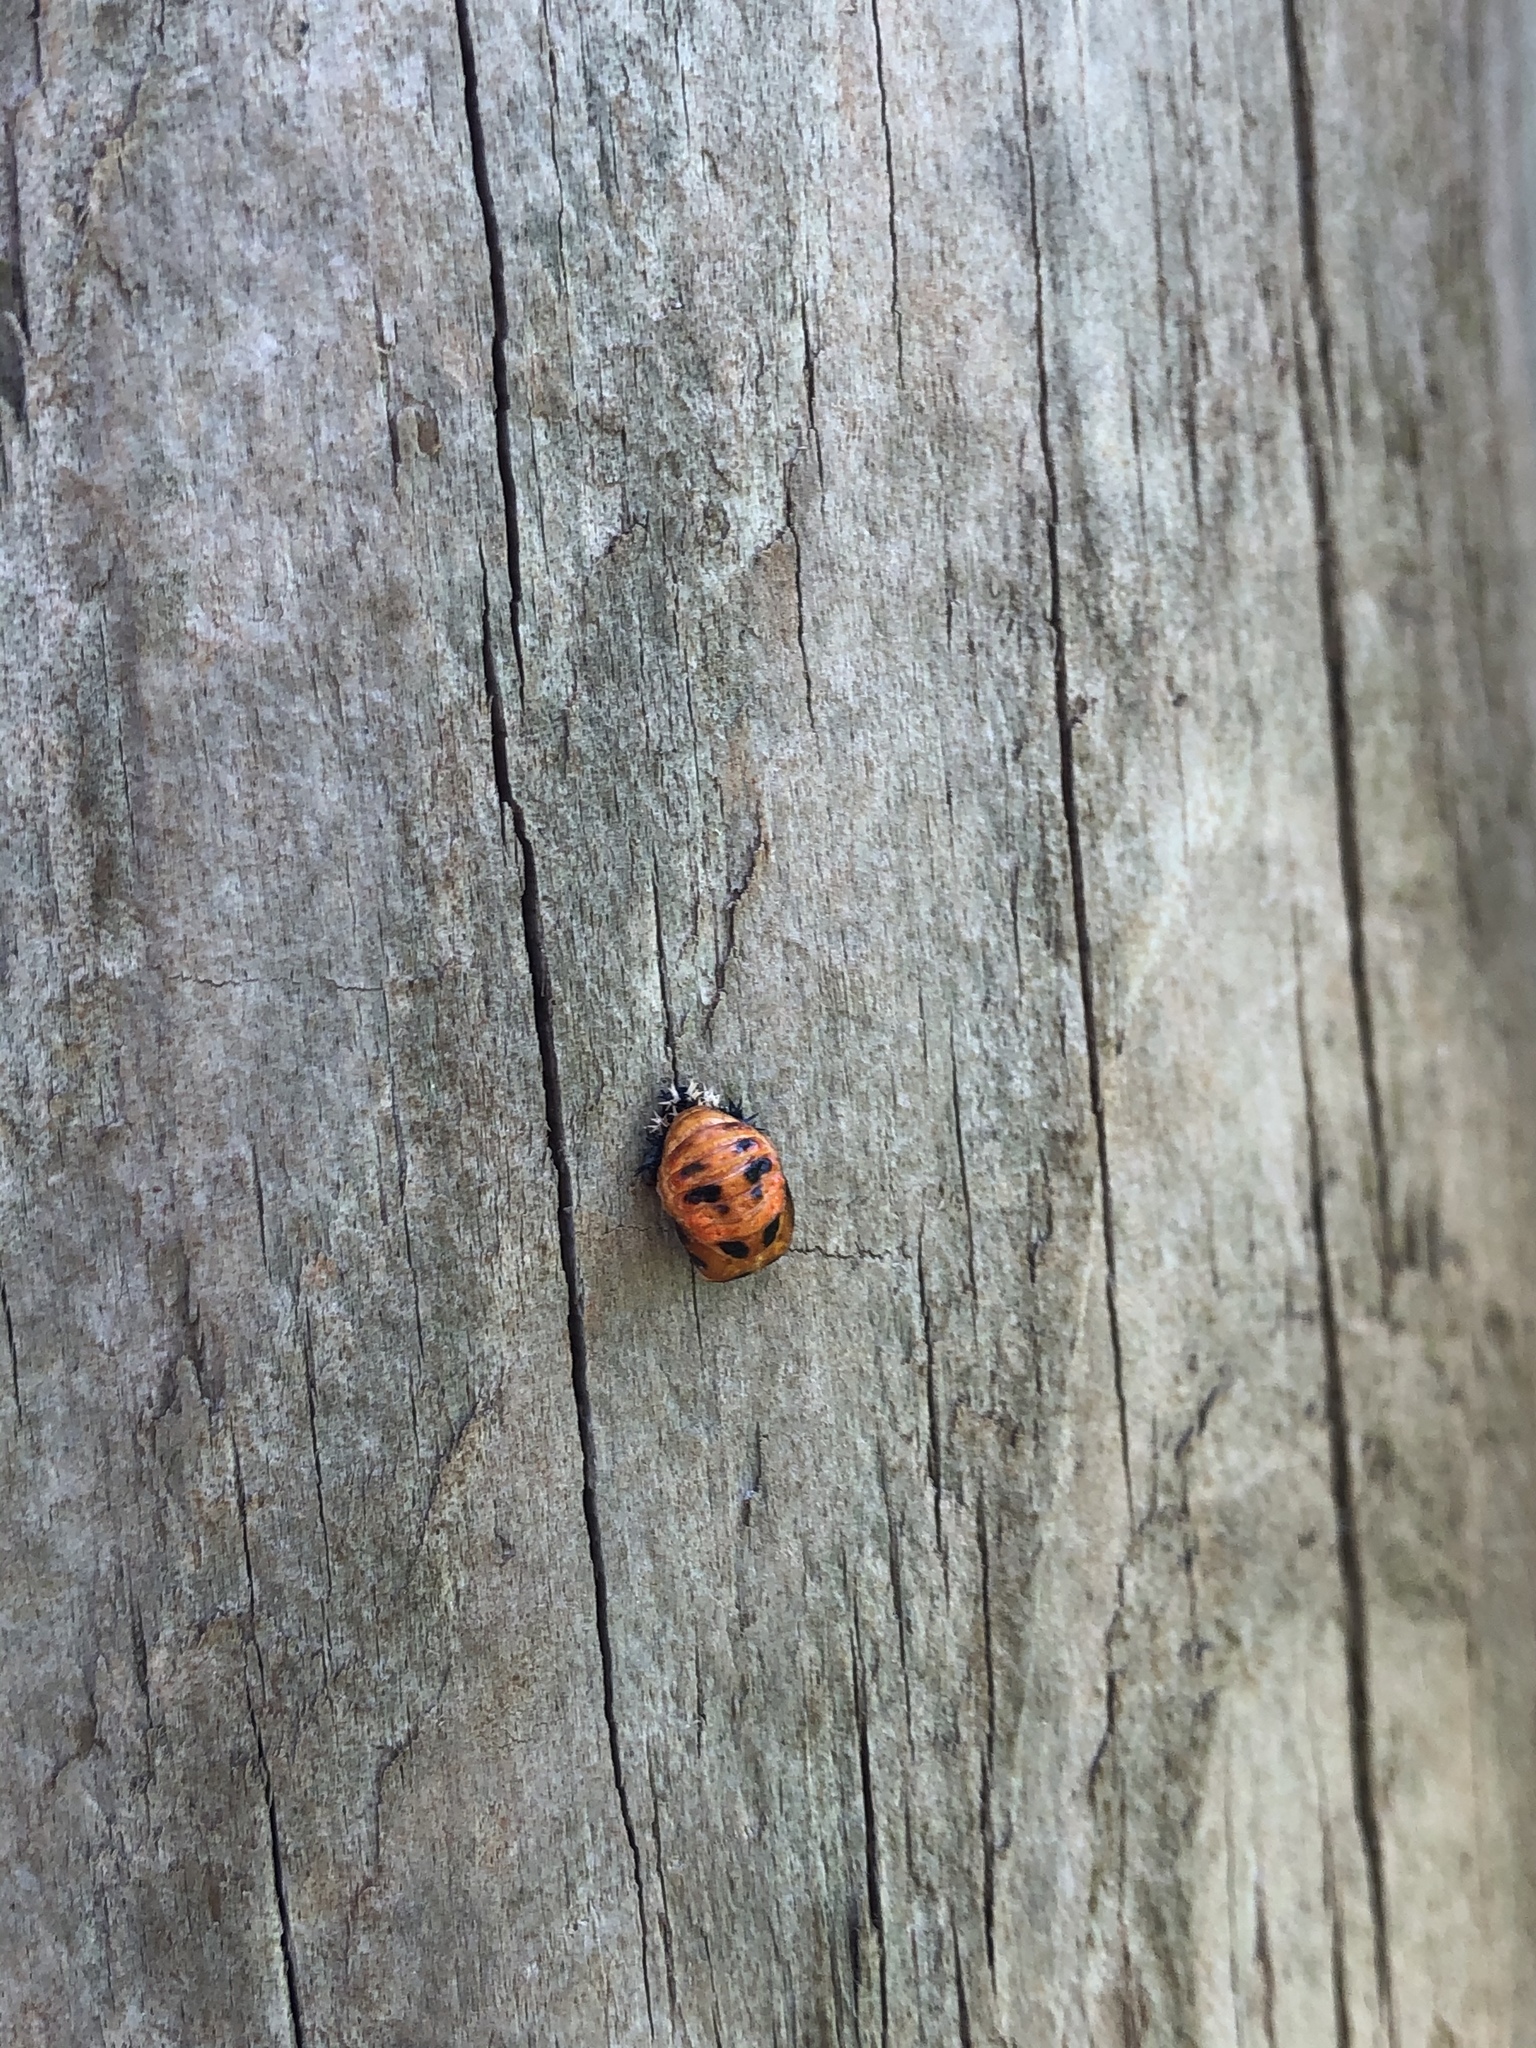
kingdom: Animalia
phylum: Arthropoda
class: Insecta
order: Coleoptera
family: Coccinellidae
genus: Harmonia
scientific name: Harmonia axyridis
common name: Harlequin ladybird
